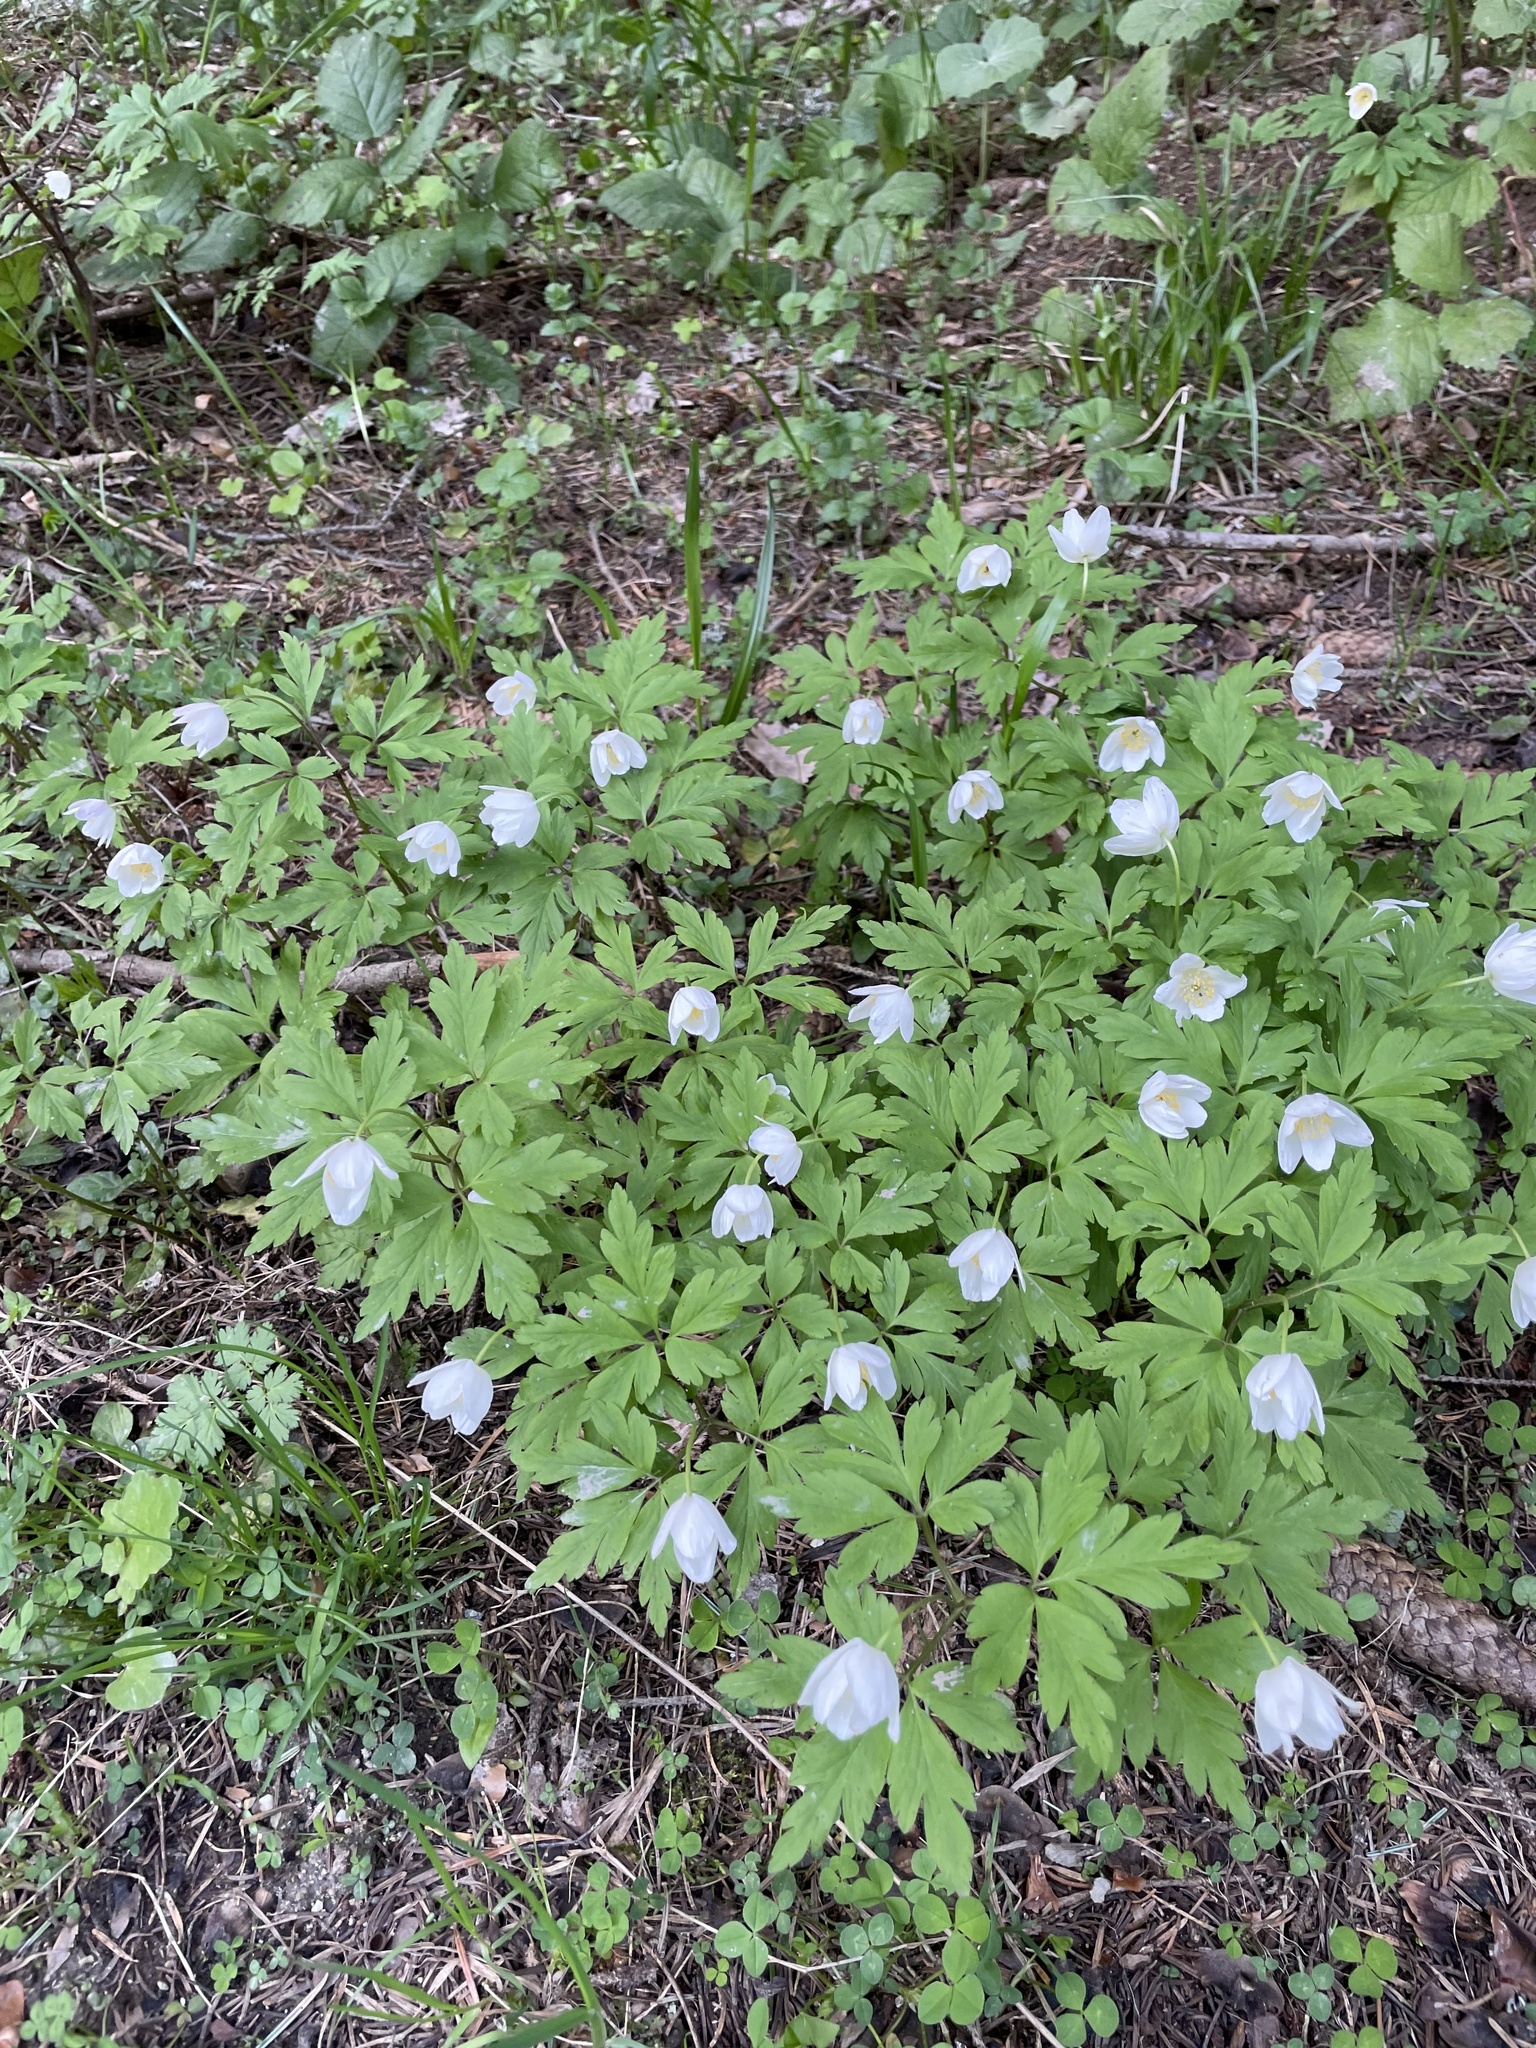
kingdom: Plantae
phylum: Tracheophyta
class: Magnoliopsida
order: Ranunculales
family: Ranunculaceae
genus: Anemone
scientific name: Anemone nemorosa
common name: Wood anemone
